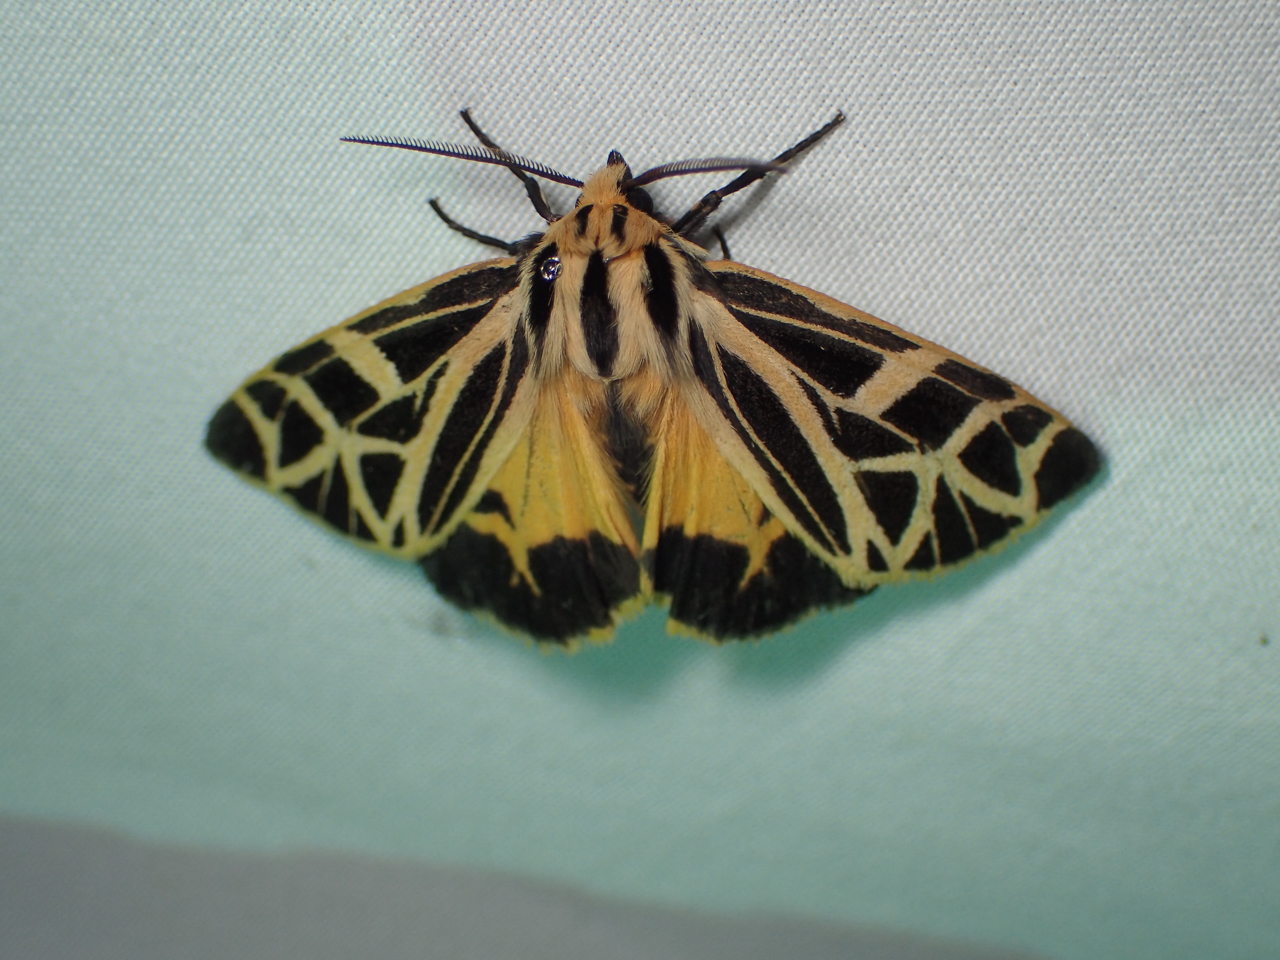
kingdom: Animalia
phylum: Arthropoda
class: Insecta
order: Lepidoptera
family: Erebidae
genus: Apantesis
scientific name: Apantesis
